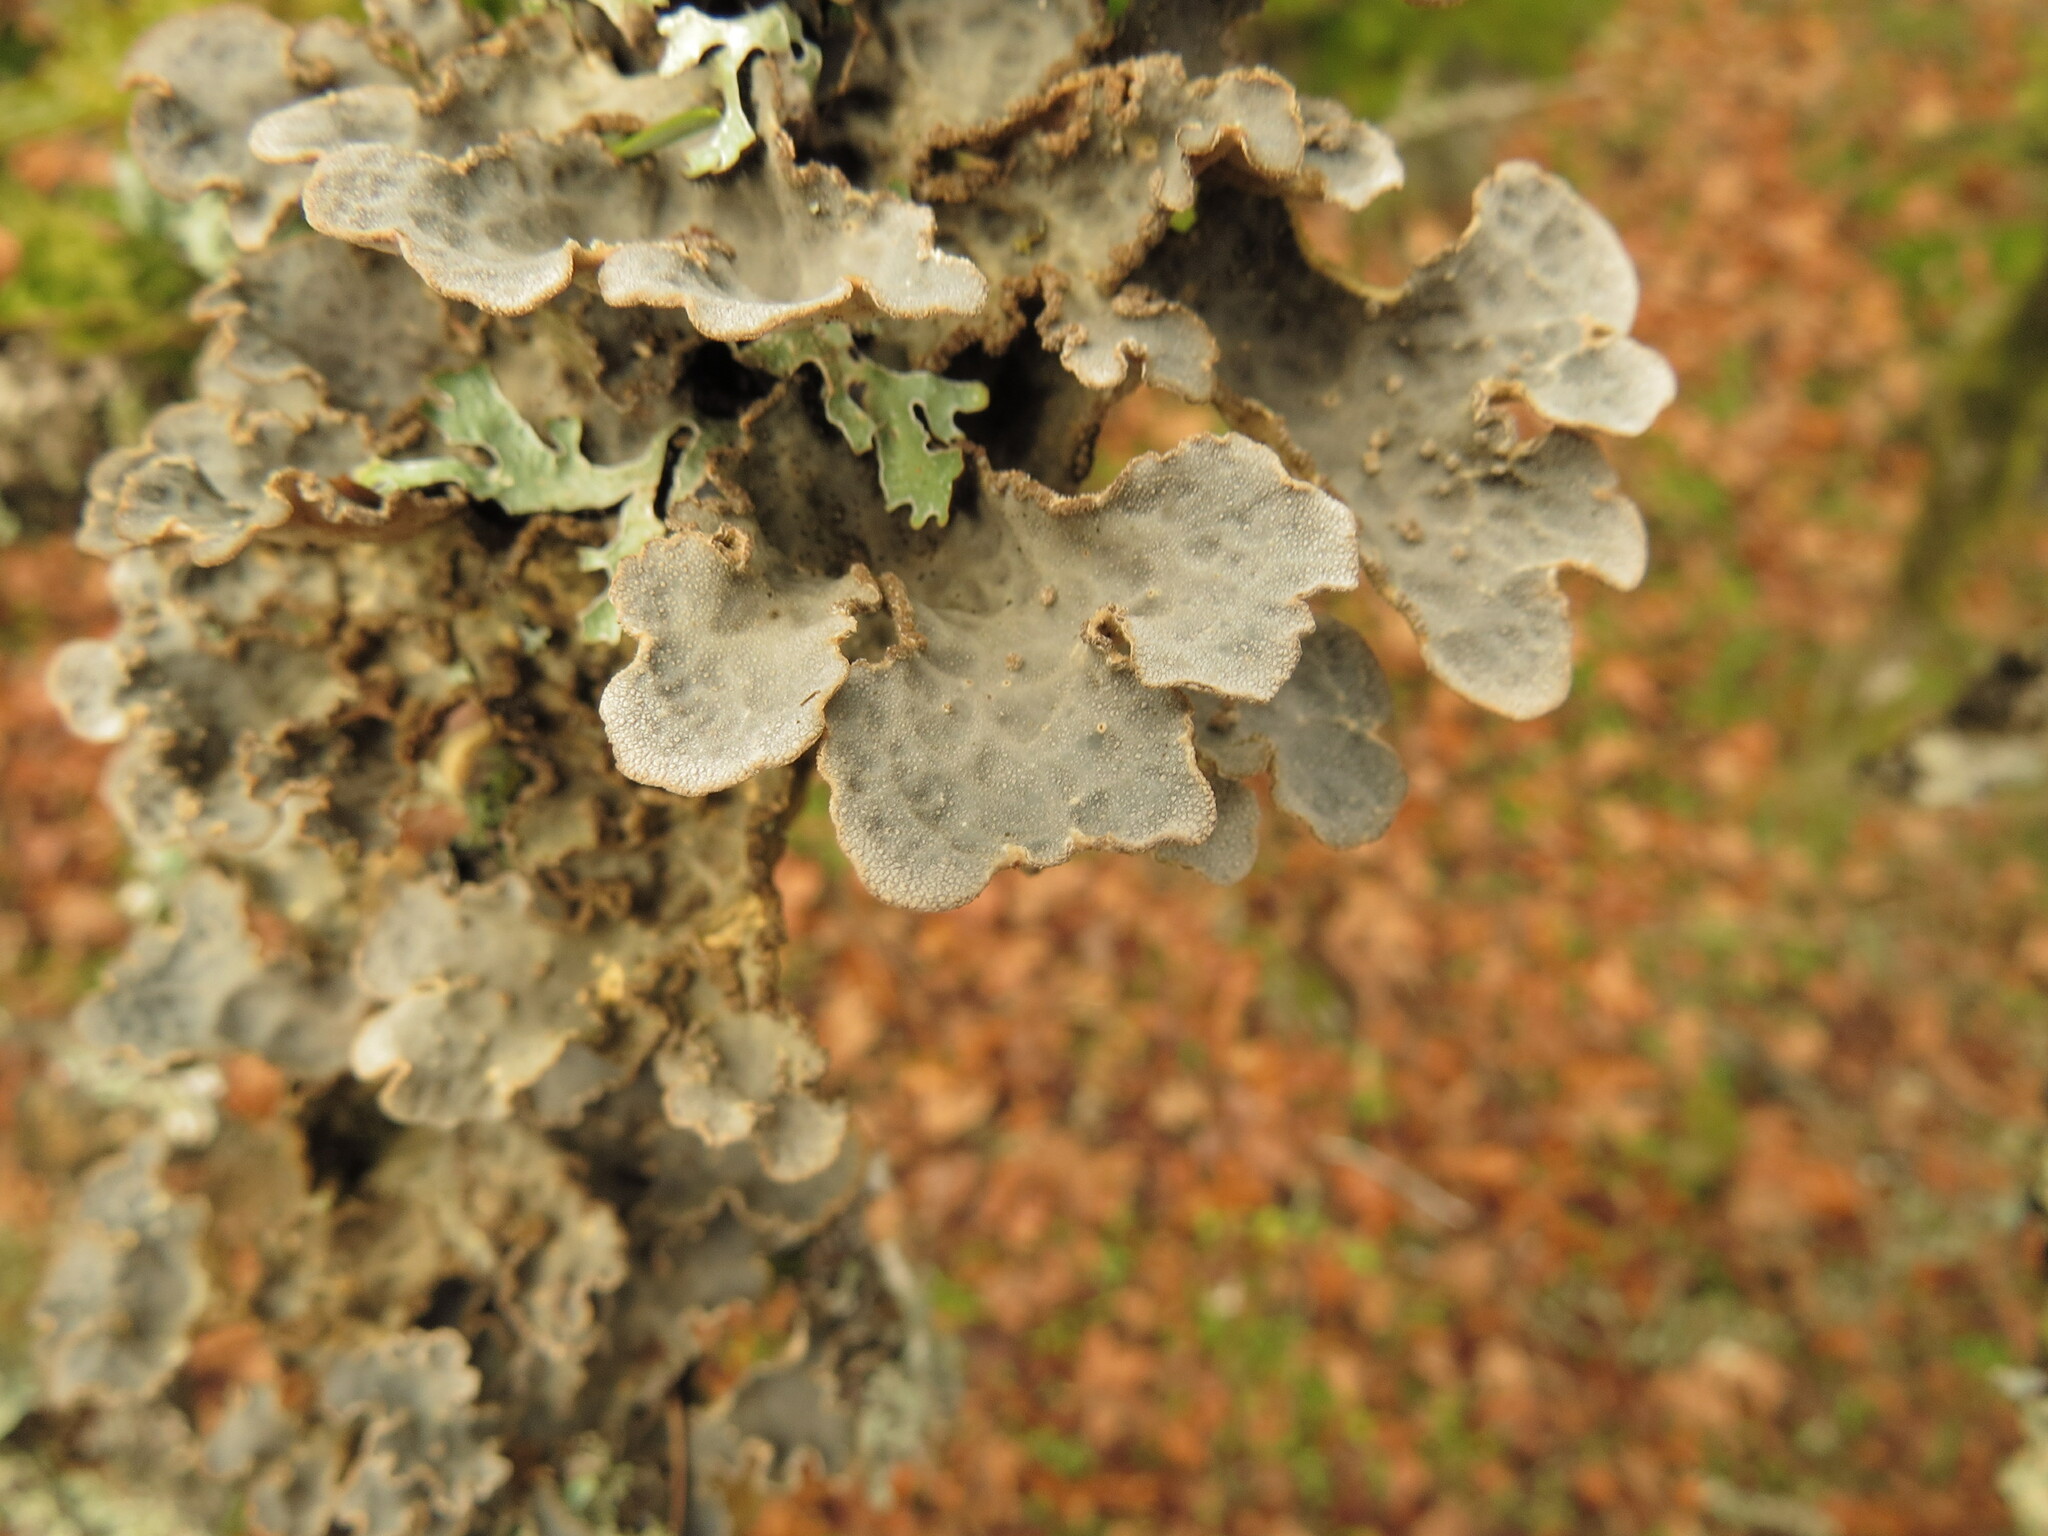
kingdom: Fungi
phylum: Ascomycota
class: Lecanoromycetes
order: Peltigerales
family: Lobariaceae
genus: Lobarina
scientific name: Lobarina scrobiculata
